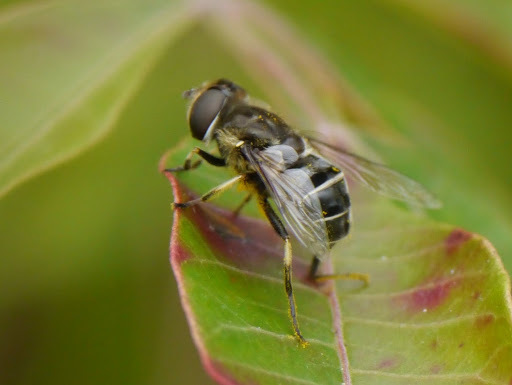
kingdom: Animalia
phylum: Arthropoda
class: Insecta
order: Diptera
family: Syrphidae
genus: Eristalis
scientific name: Eristalis dimidiata
